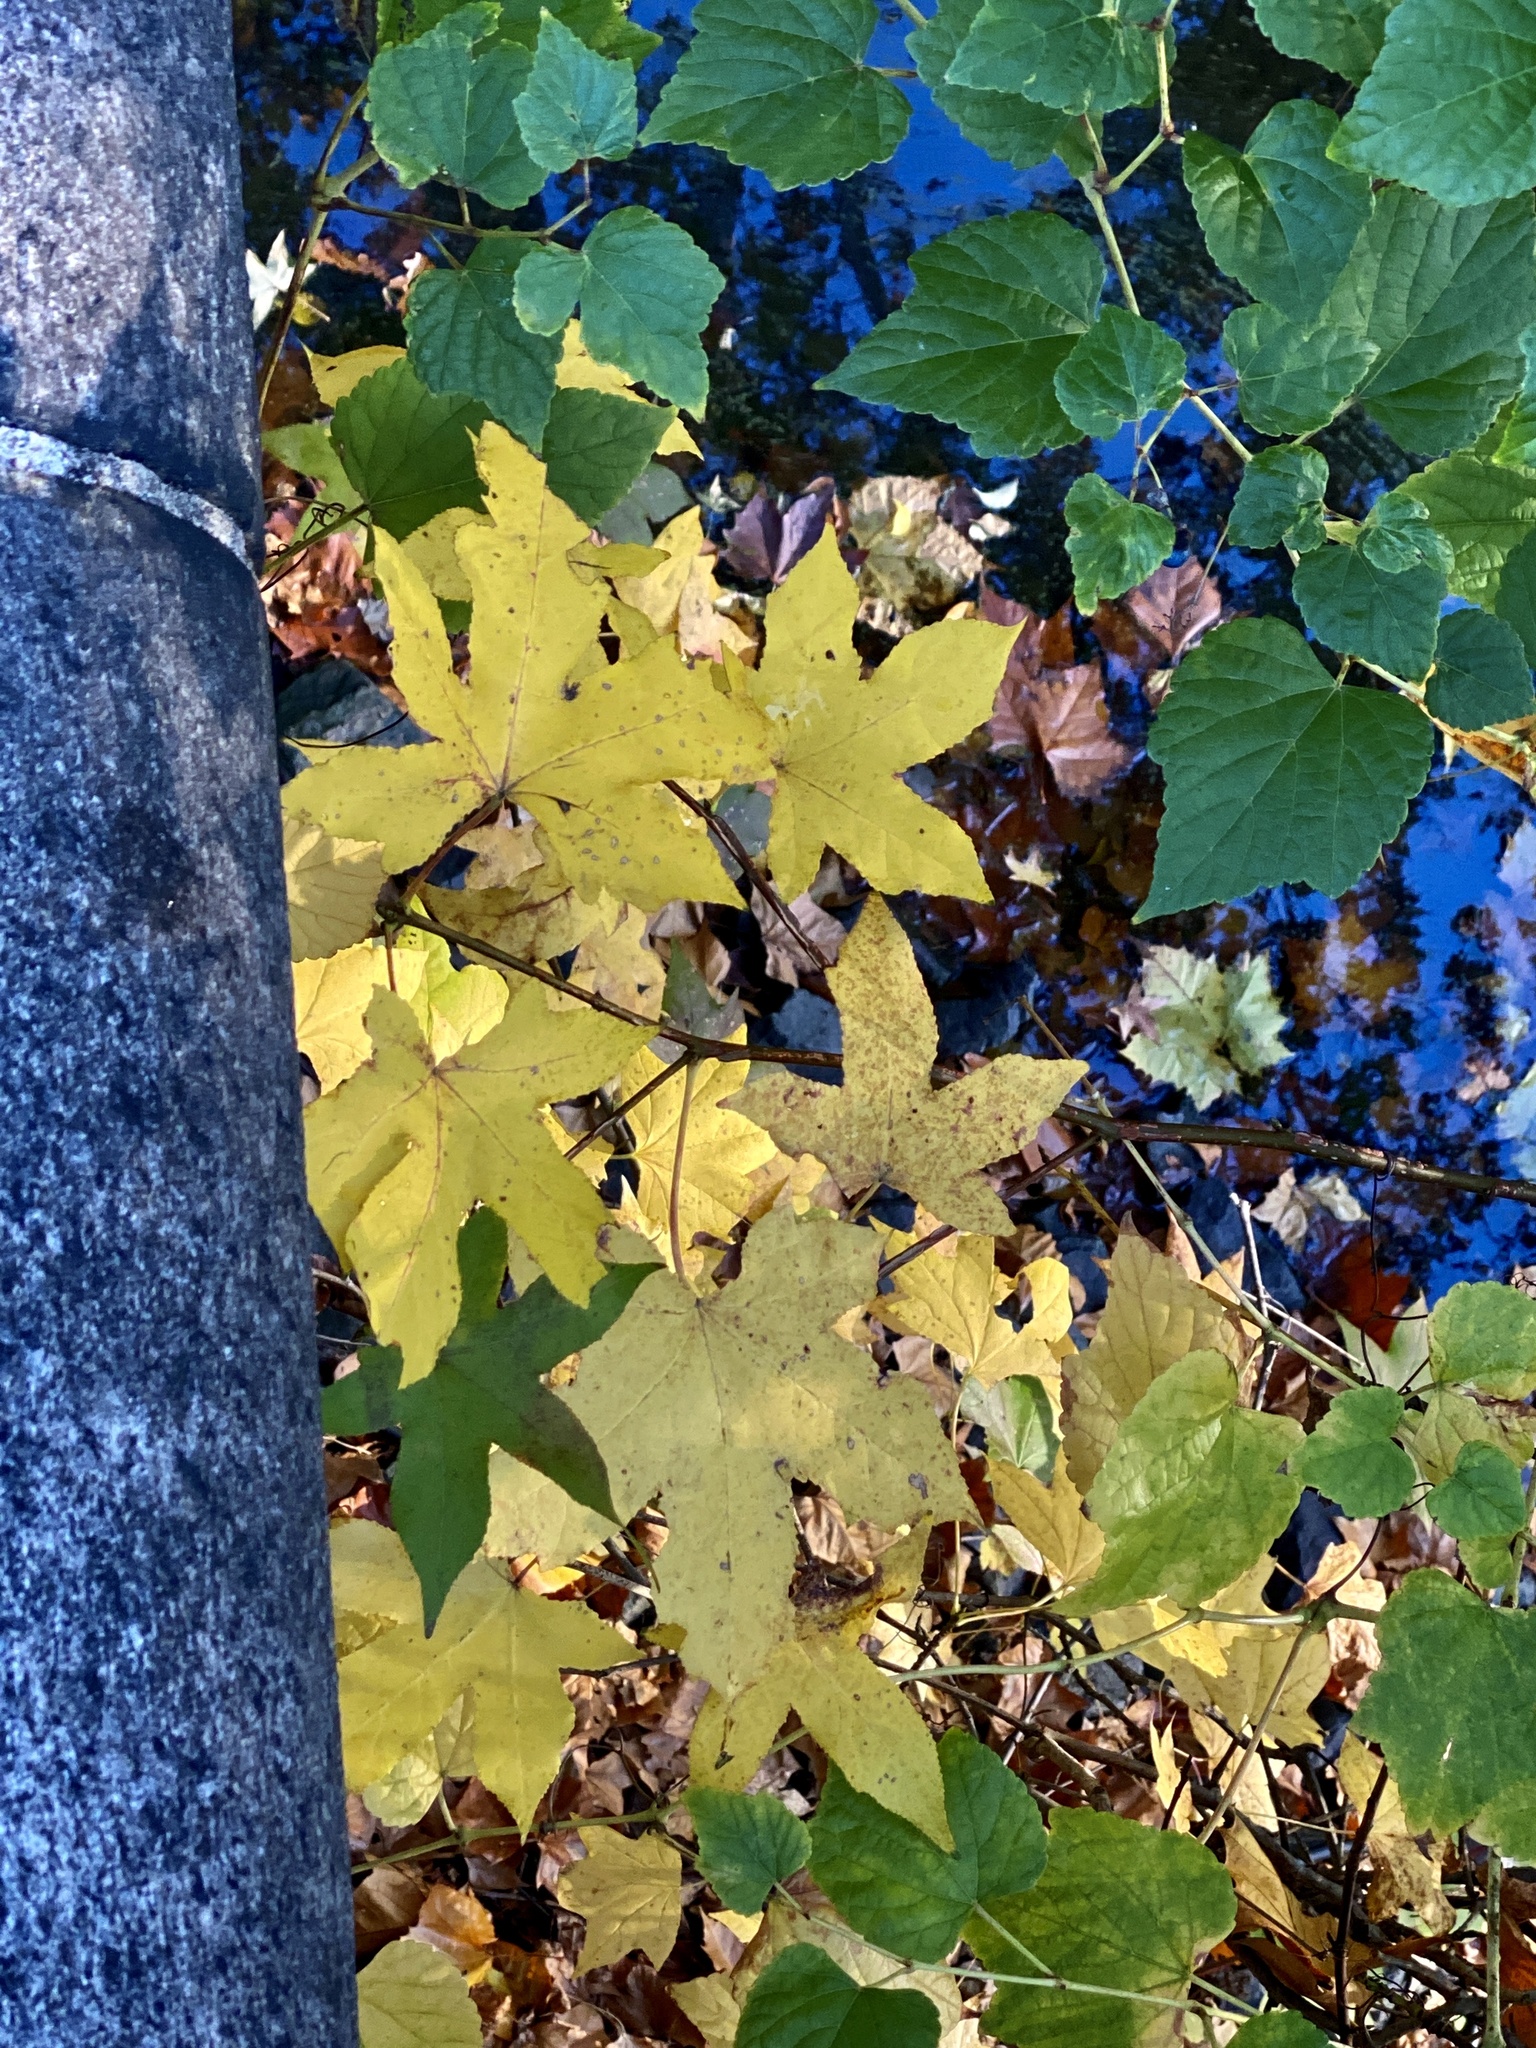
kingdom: Plantae
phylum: Tracheophyta
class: Magnoliopsida
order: Saxifragales
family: Altingiaceae
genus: Liquidambar
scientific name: Liquidambar styraciflua
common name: Sweet gum
